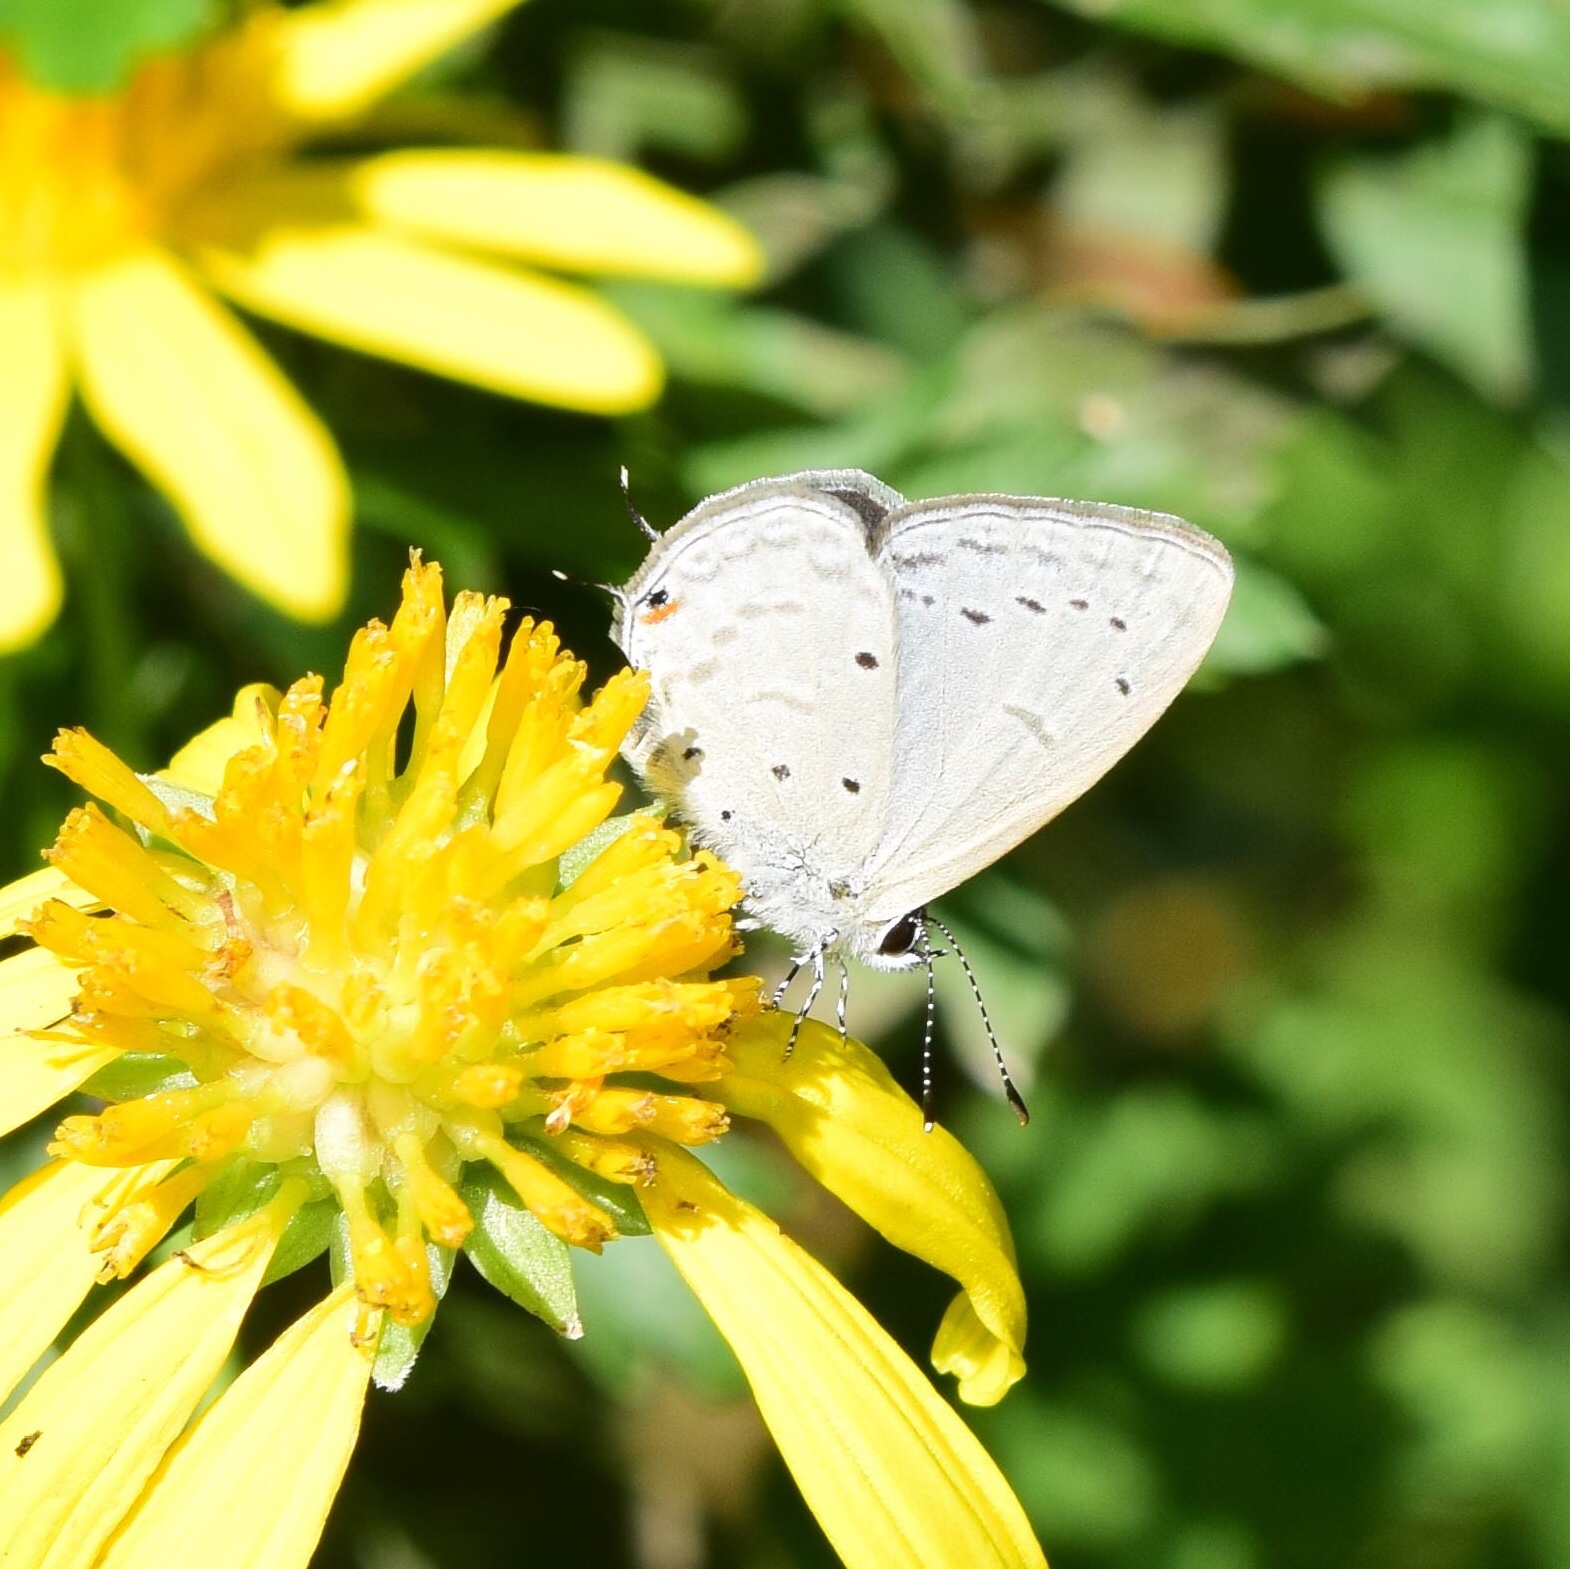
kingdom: Animalia
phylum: Arthropoda
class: Insecta
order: Lepidoptera
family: Lycaenidae
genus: Eicochrysops
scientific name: Eicochrysops hippocrates
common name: White-tipped blue
